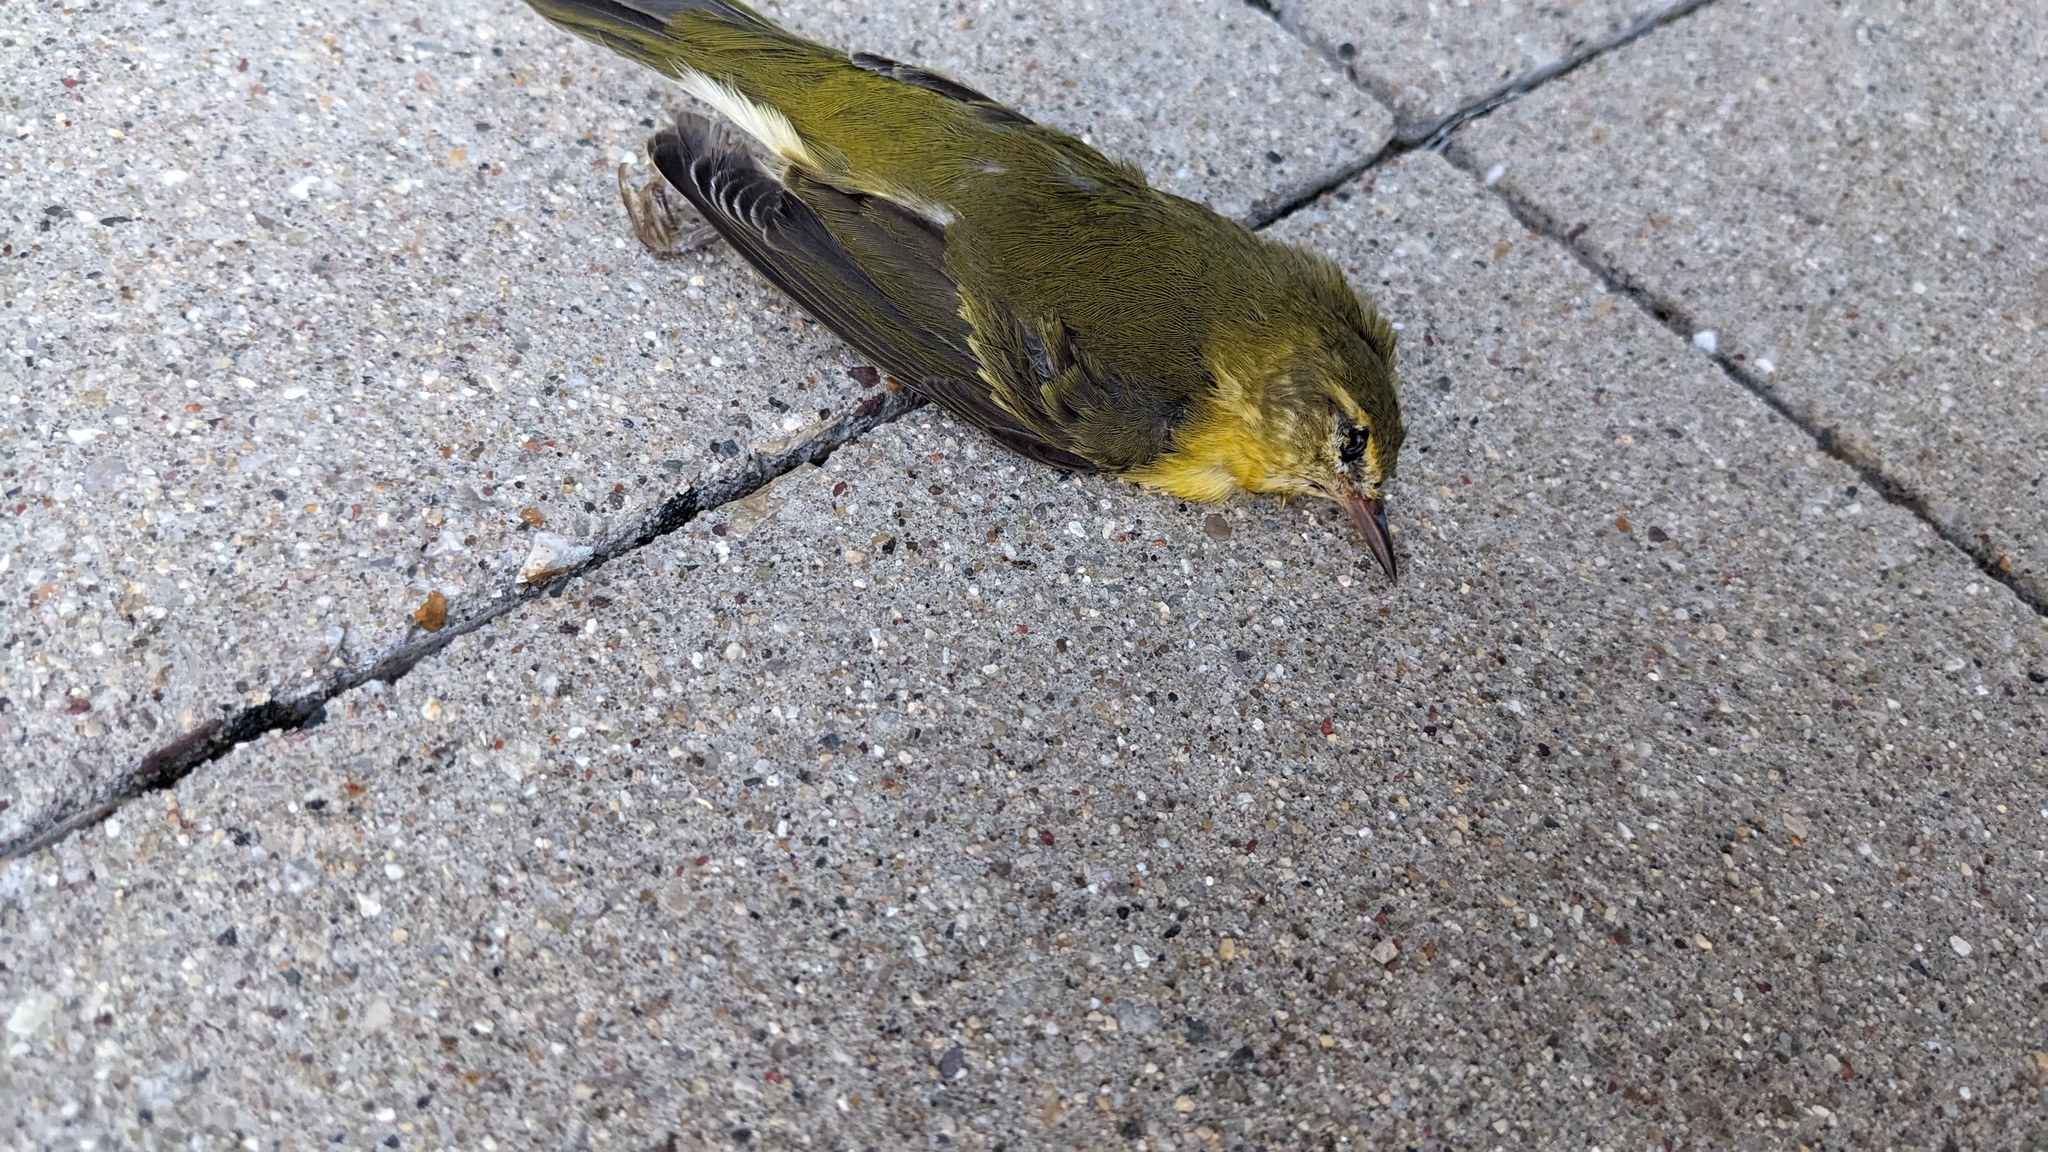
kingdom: Animalia
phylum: Chordata
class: Aves
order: Passeriformes
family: Parulidae
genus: Leiothlypis
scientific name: Leiothlypis peregrina
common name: Tennessee warbler
